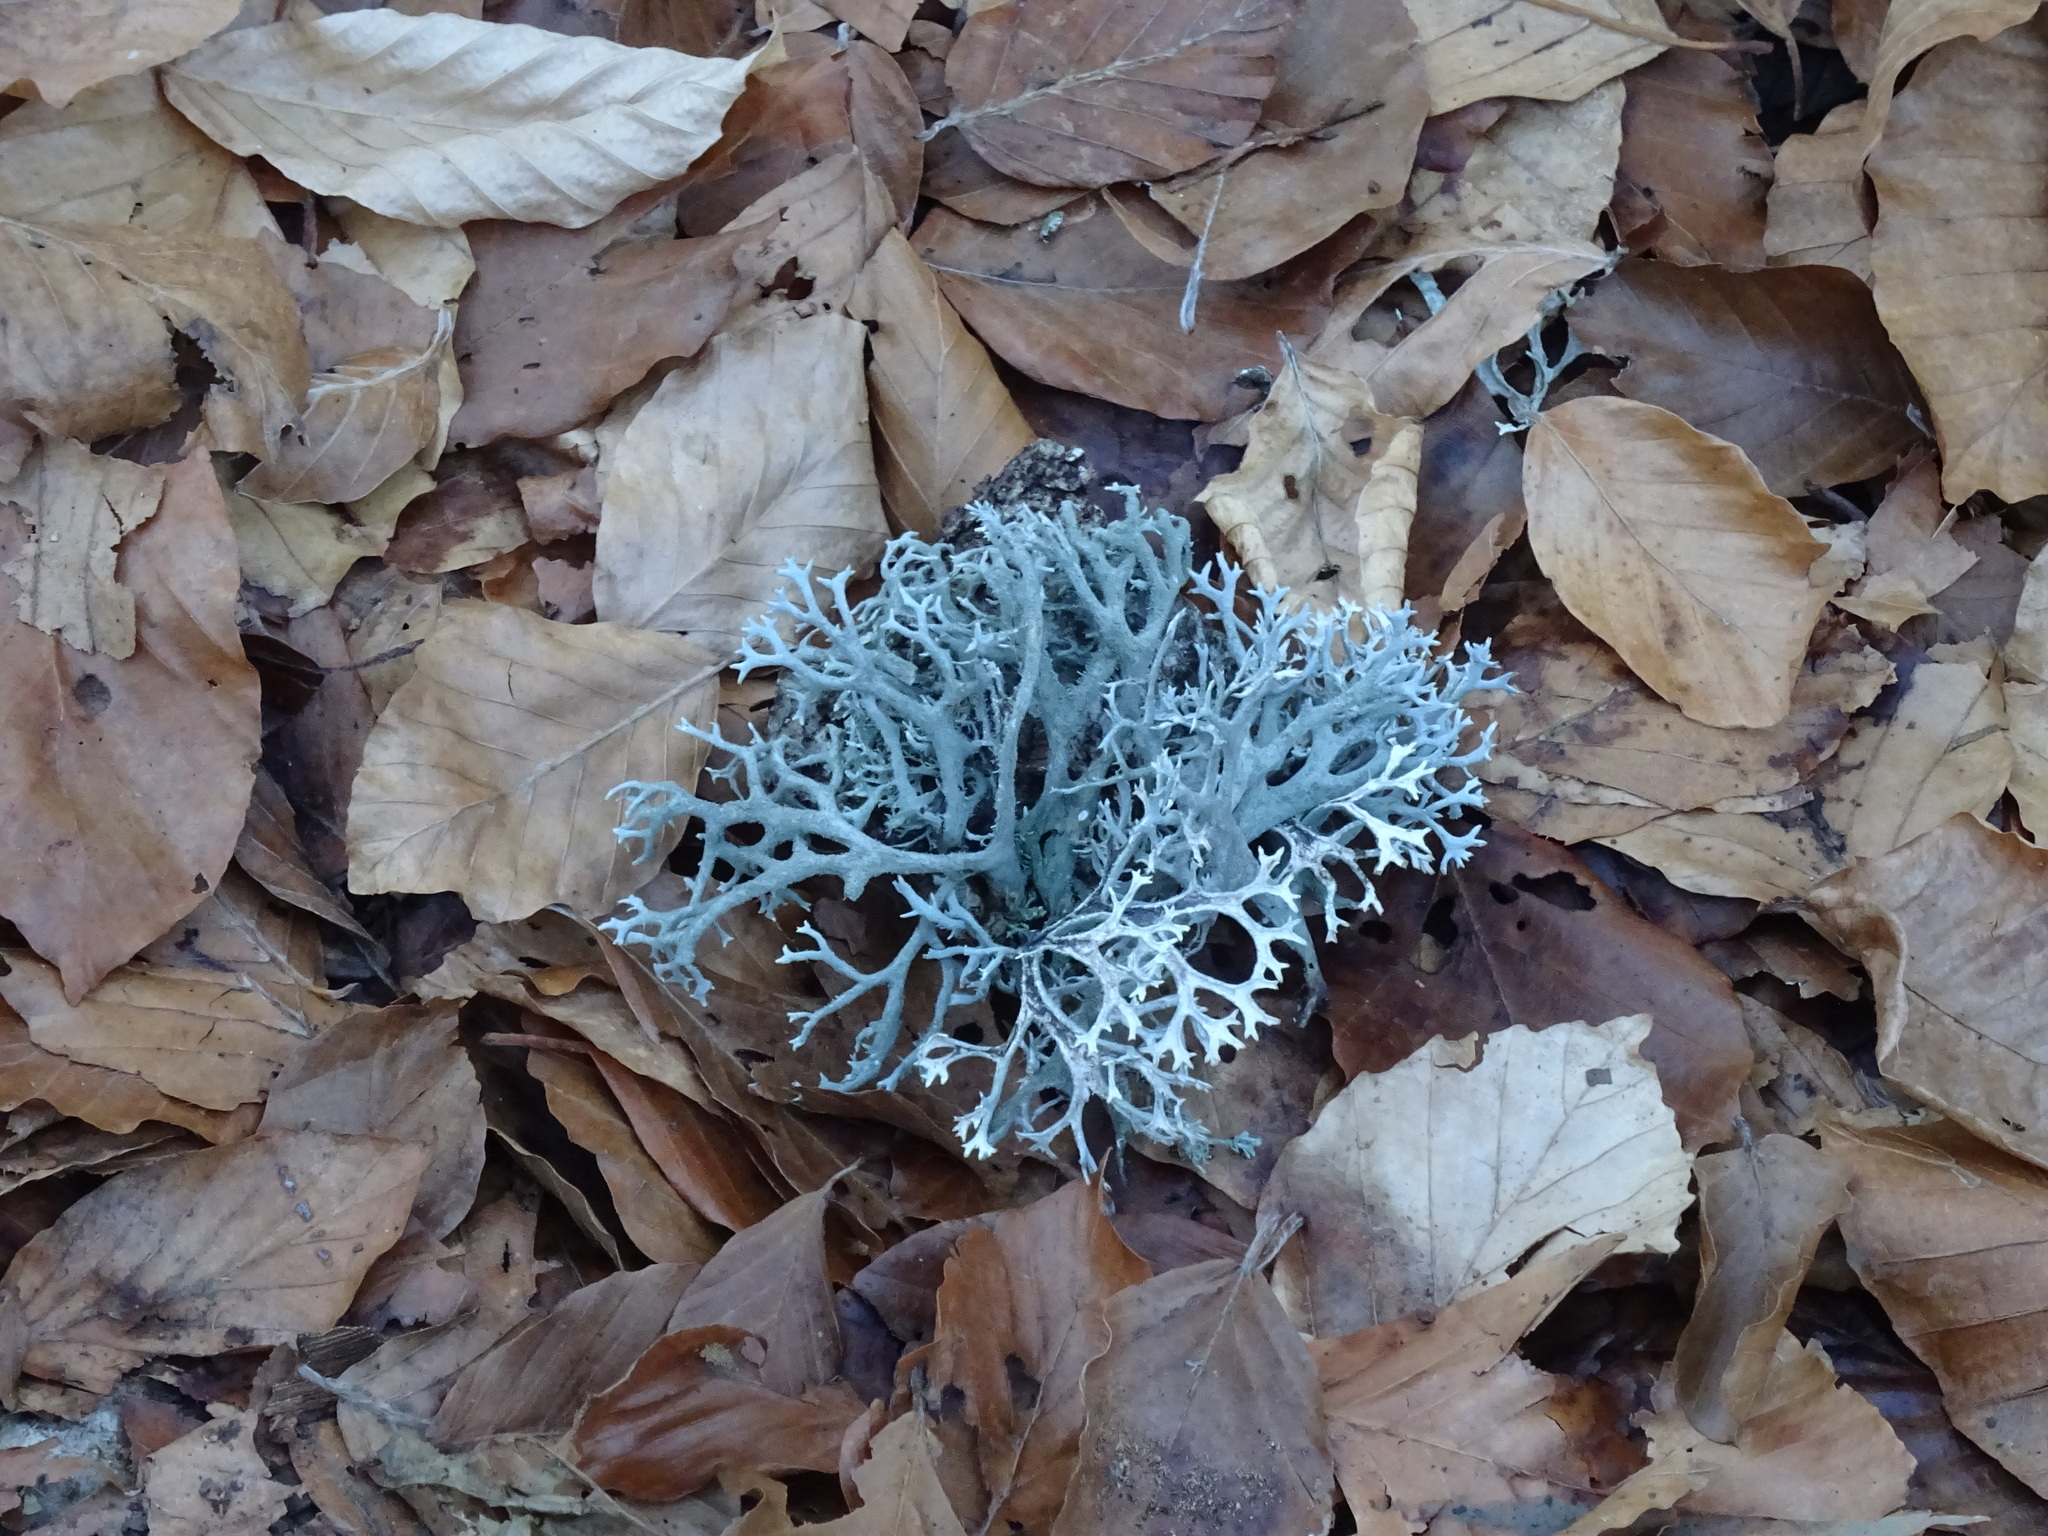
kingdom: Fungi
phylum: Ascomycota
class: Lecanoromycetes
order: Lecanorales
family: Parmeliaceae
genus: Pseudevernia
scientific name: Pseudevernia furfuracea
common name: Tree moss
